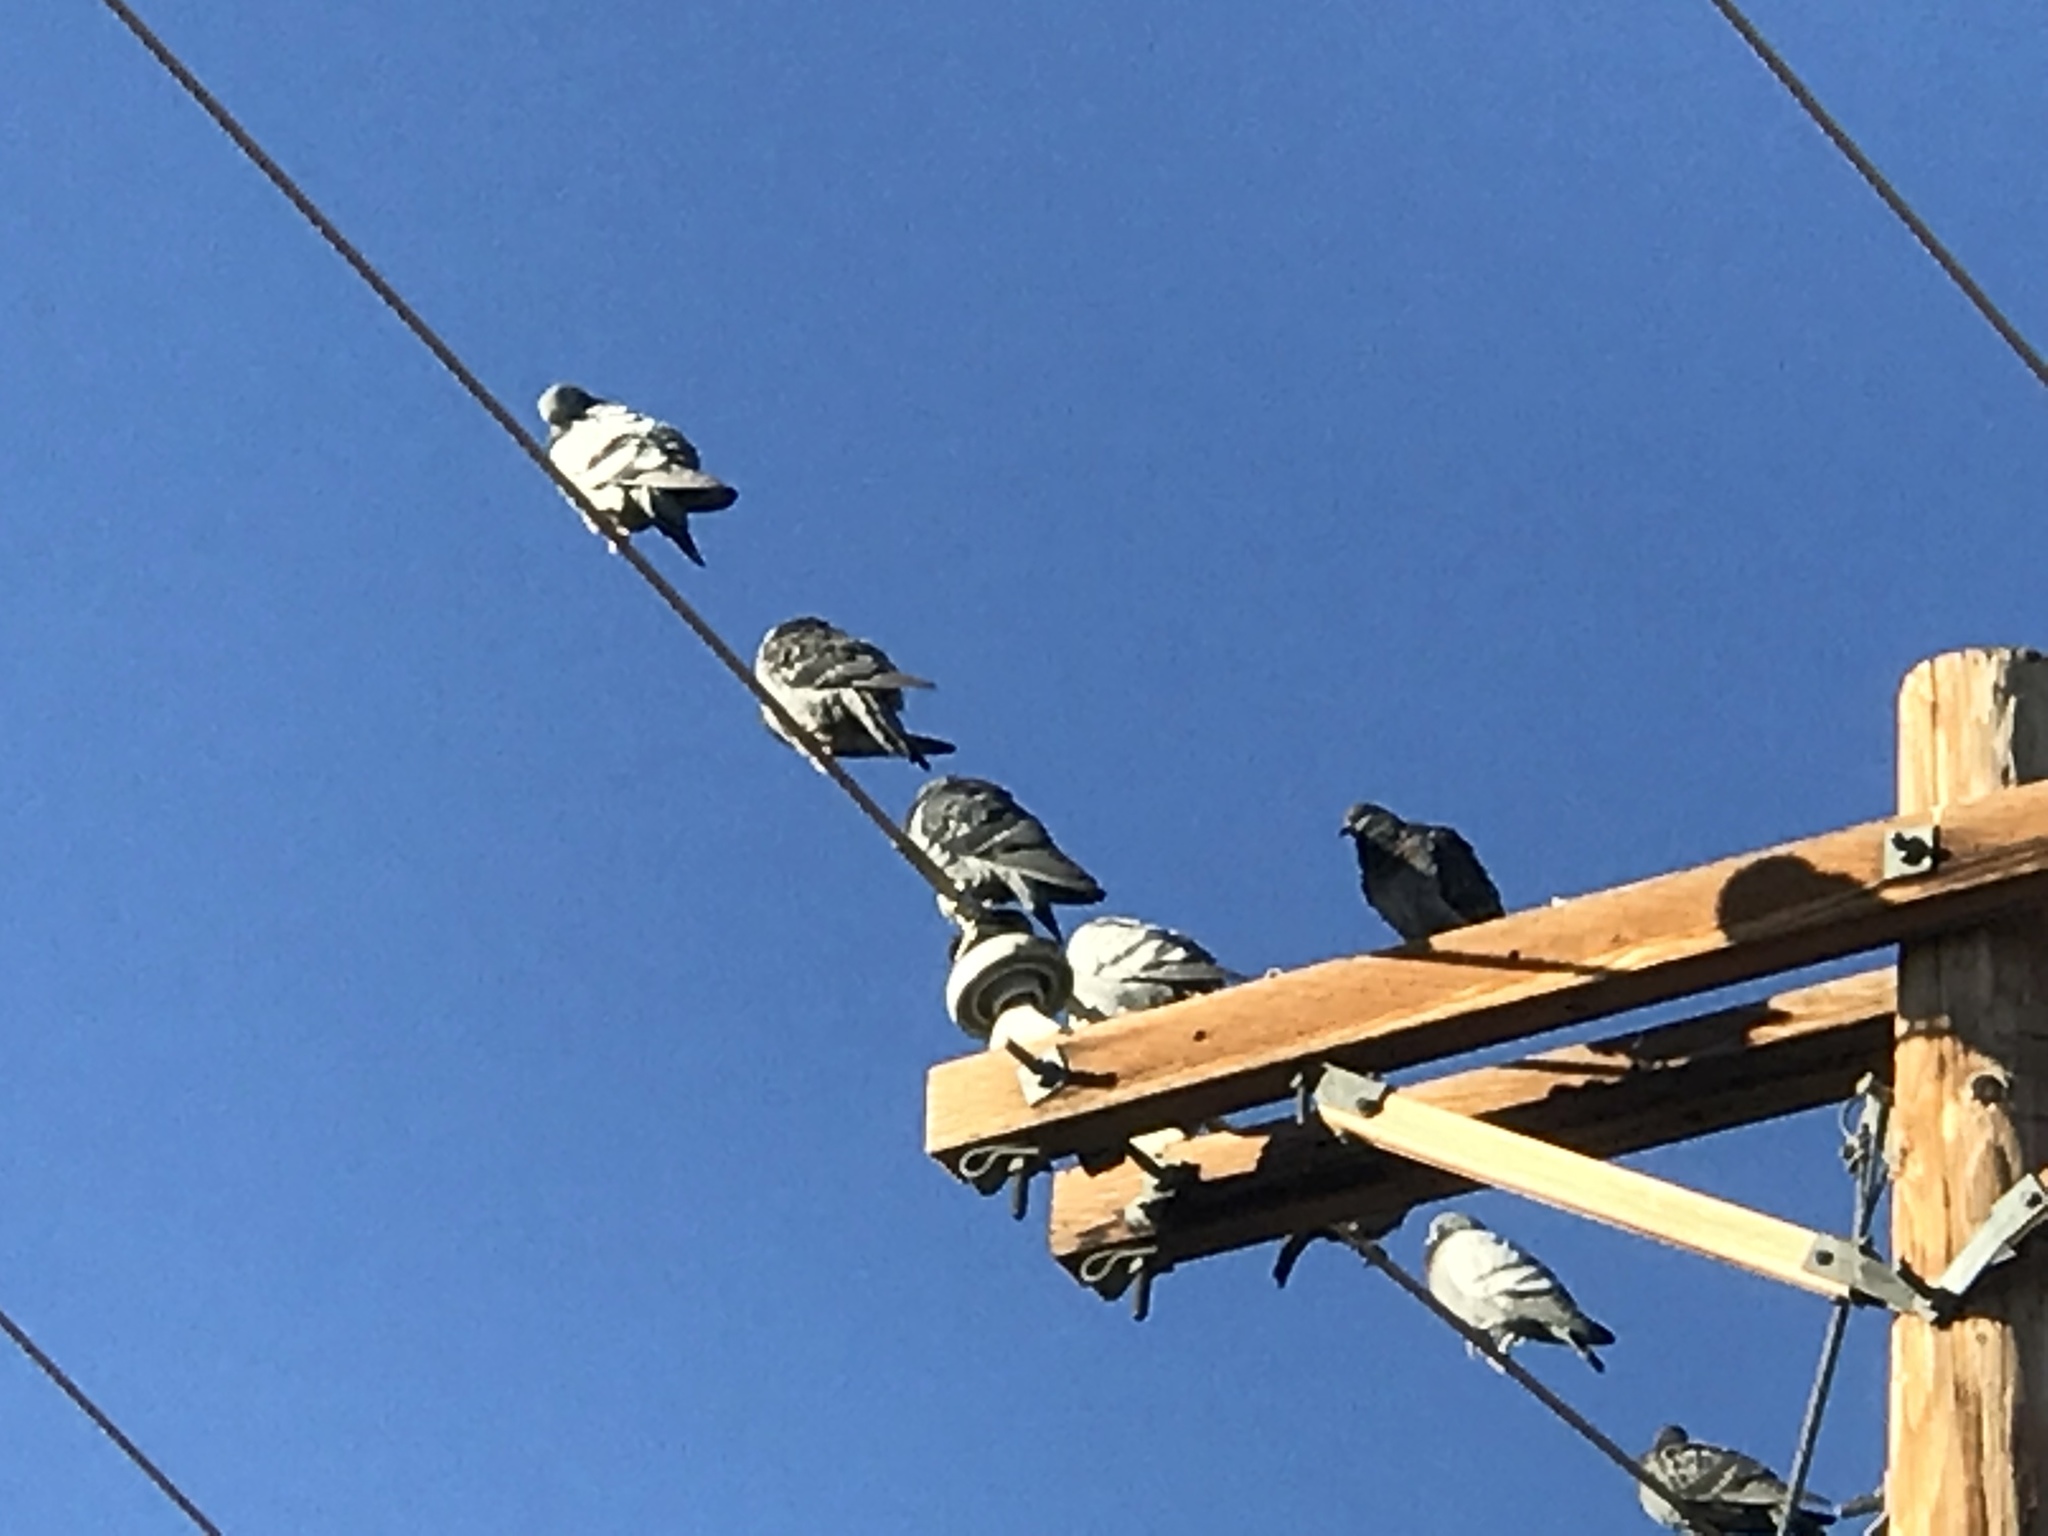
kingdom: Animalia
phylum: Chordata
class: Aves
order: Columbiformes
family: Columbidae
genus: Columba
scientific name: Columba livia
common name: Rock pigeon
